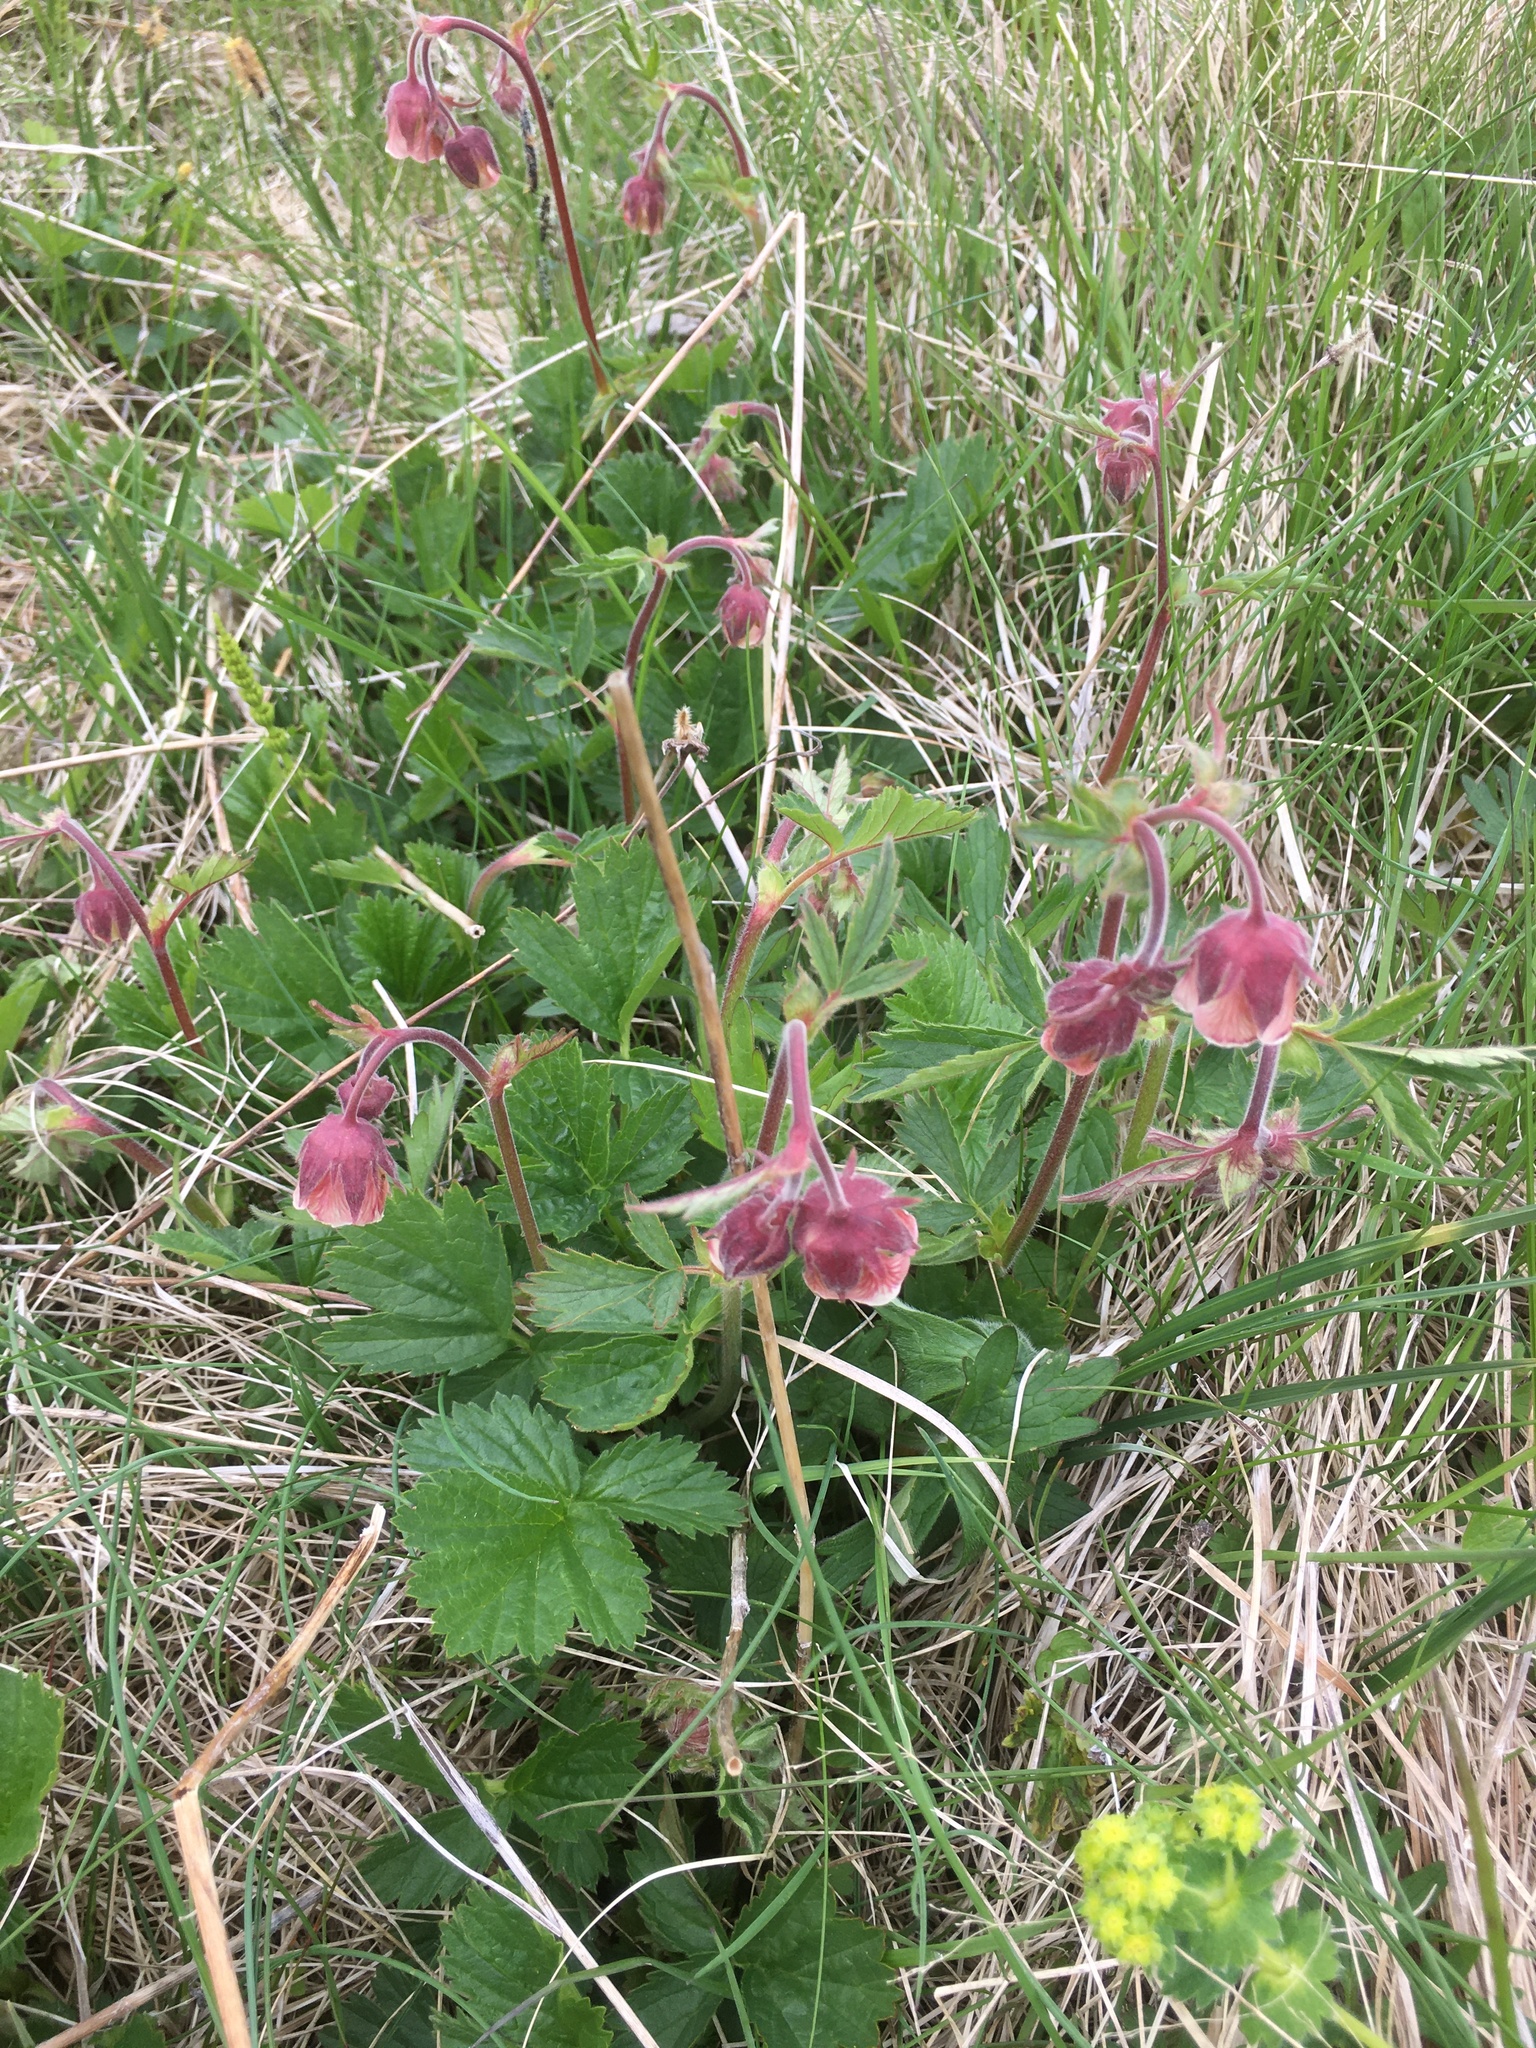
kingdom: Plantae
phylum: Tracheophyta
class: Magnoliopsida
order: Rosales
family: Rosaceae
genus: Geum
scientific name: Geum rivale
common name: Water avens
